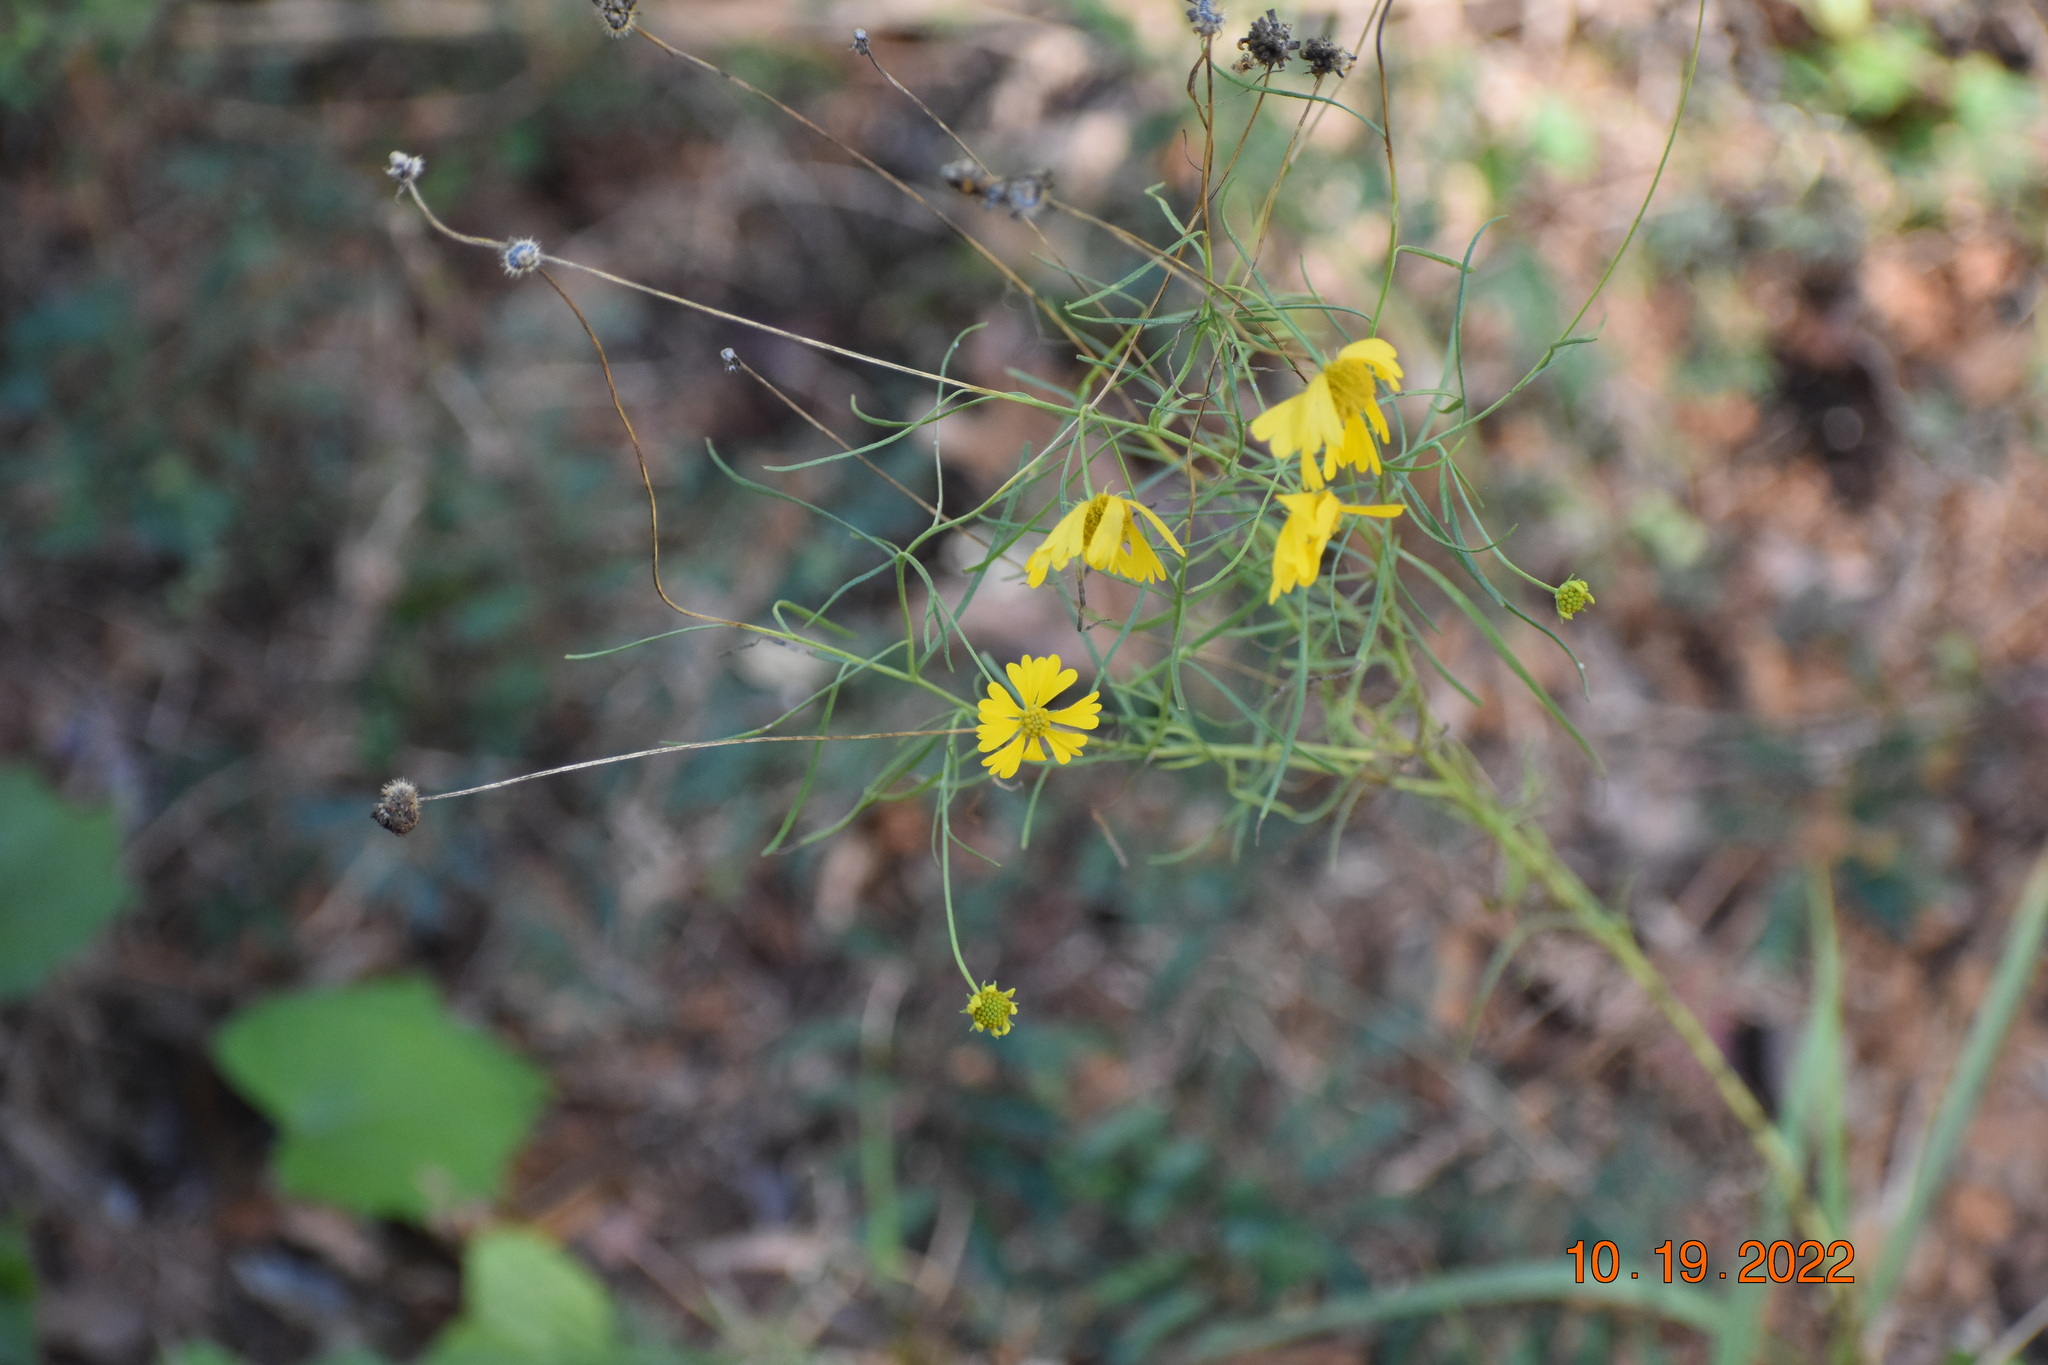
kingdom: Plantae
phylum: Tracheophyta
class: Magnoliopsida
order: Asterales
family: Asteraceae
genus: Helenium
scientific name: Helenium amarum
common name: Bitter sneezeweed
